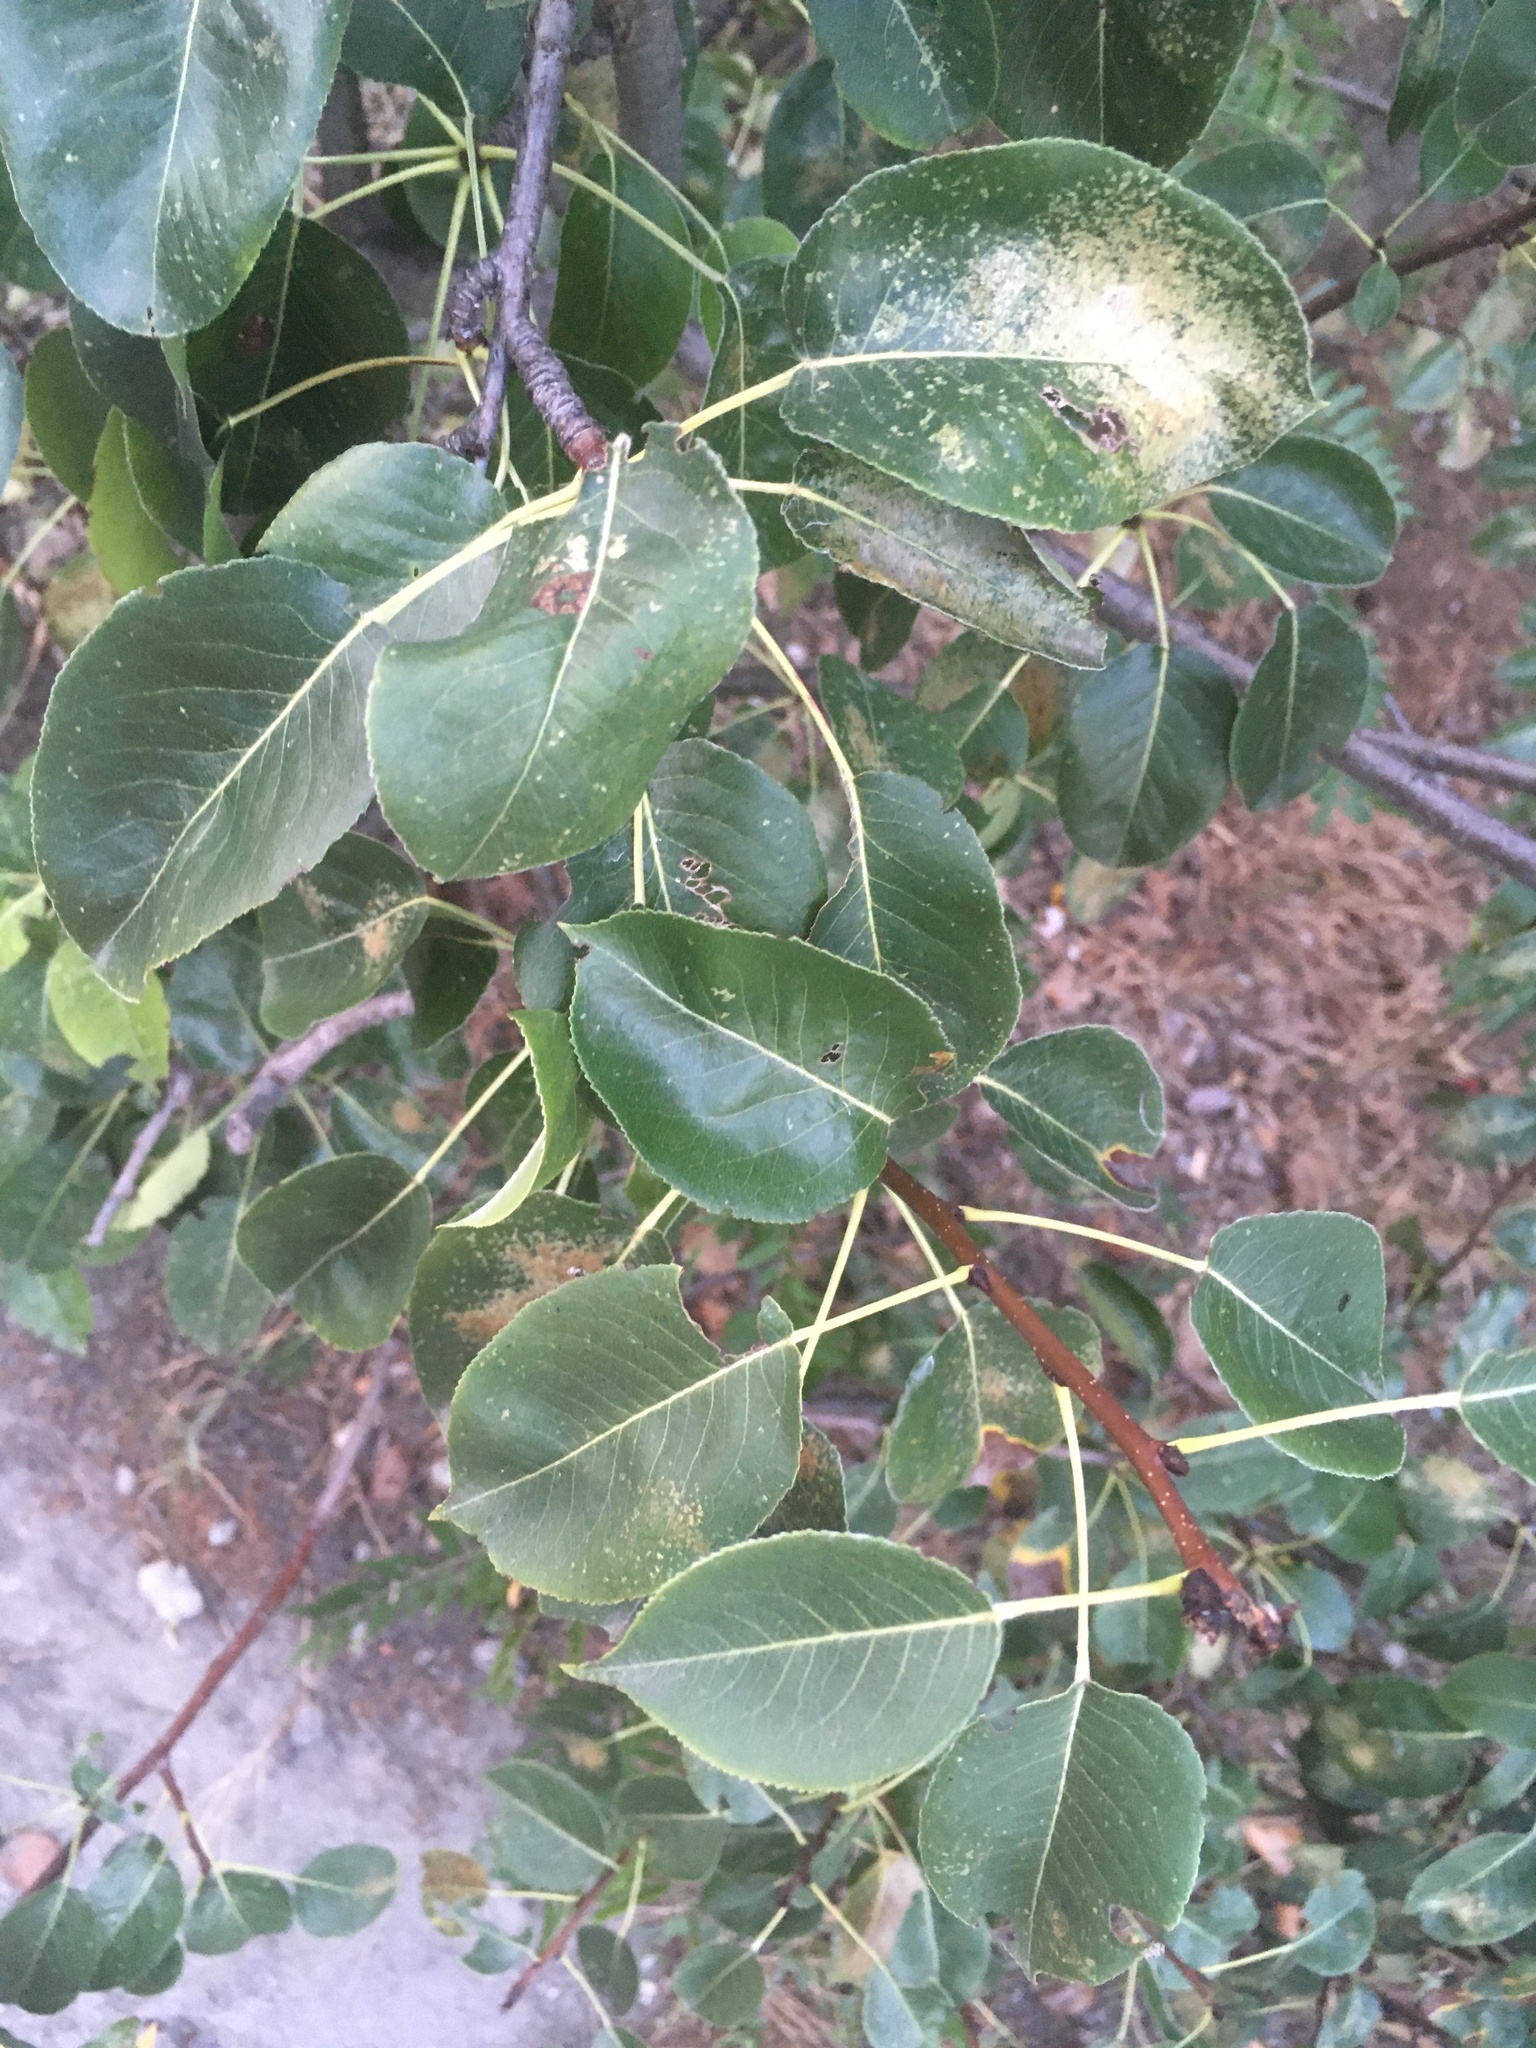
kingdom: Plantae
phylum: Tracheophyta
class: Magnoliopsida
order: Rosales
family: Rosaceae
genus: Pyrus
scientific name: Pyrus communis
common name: Pear
